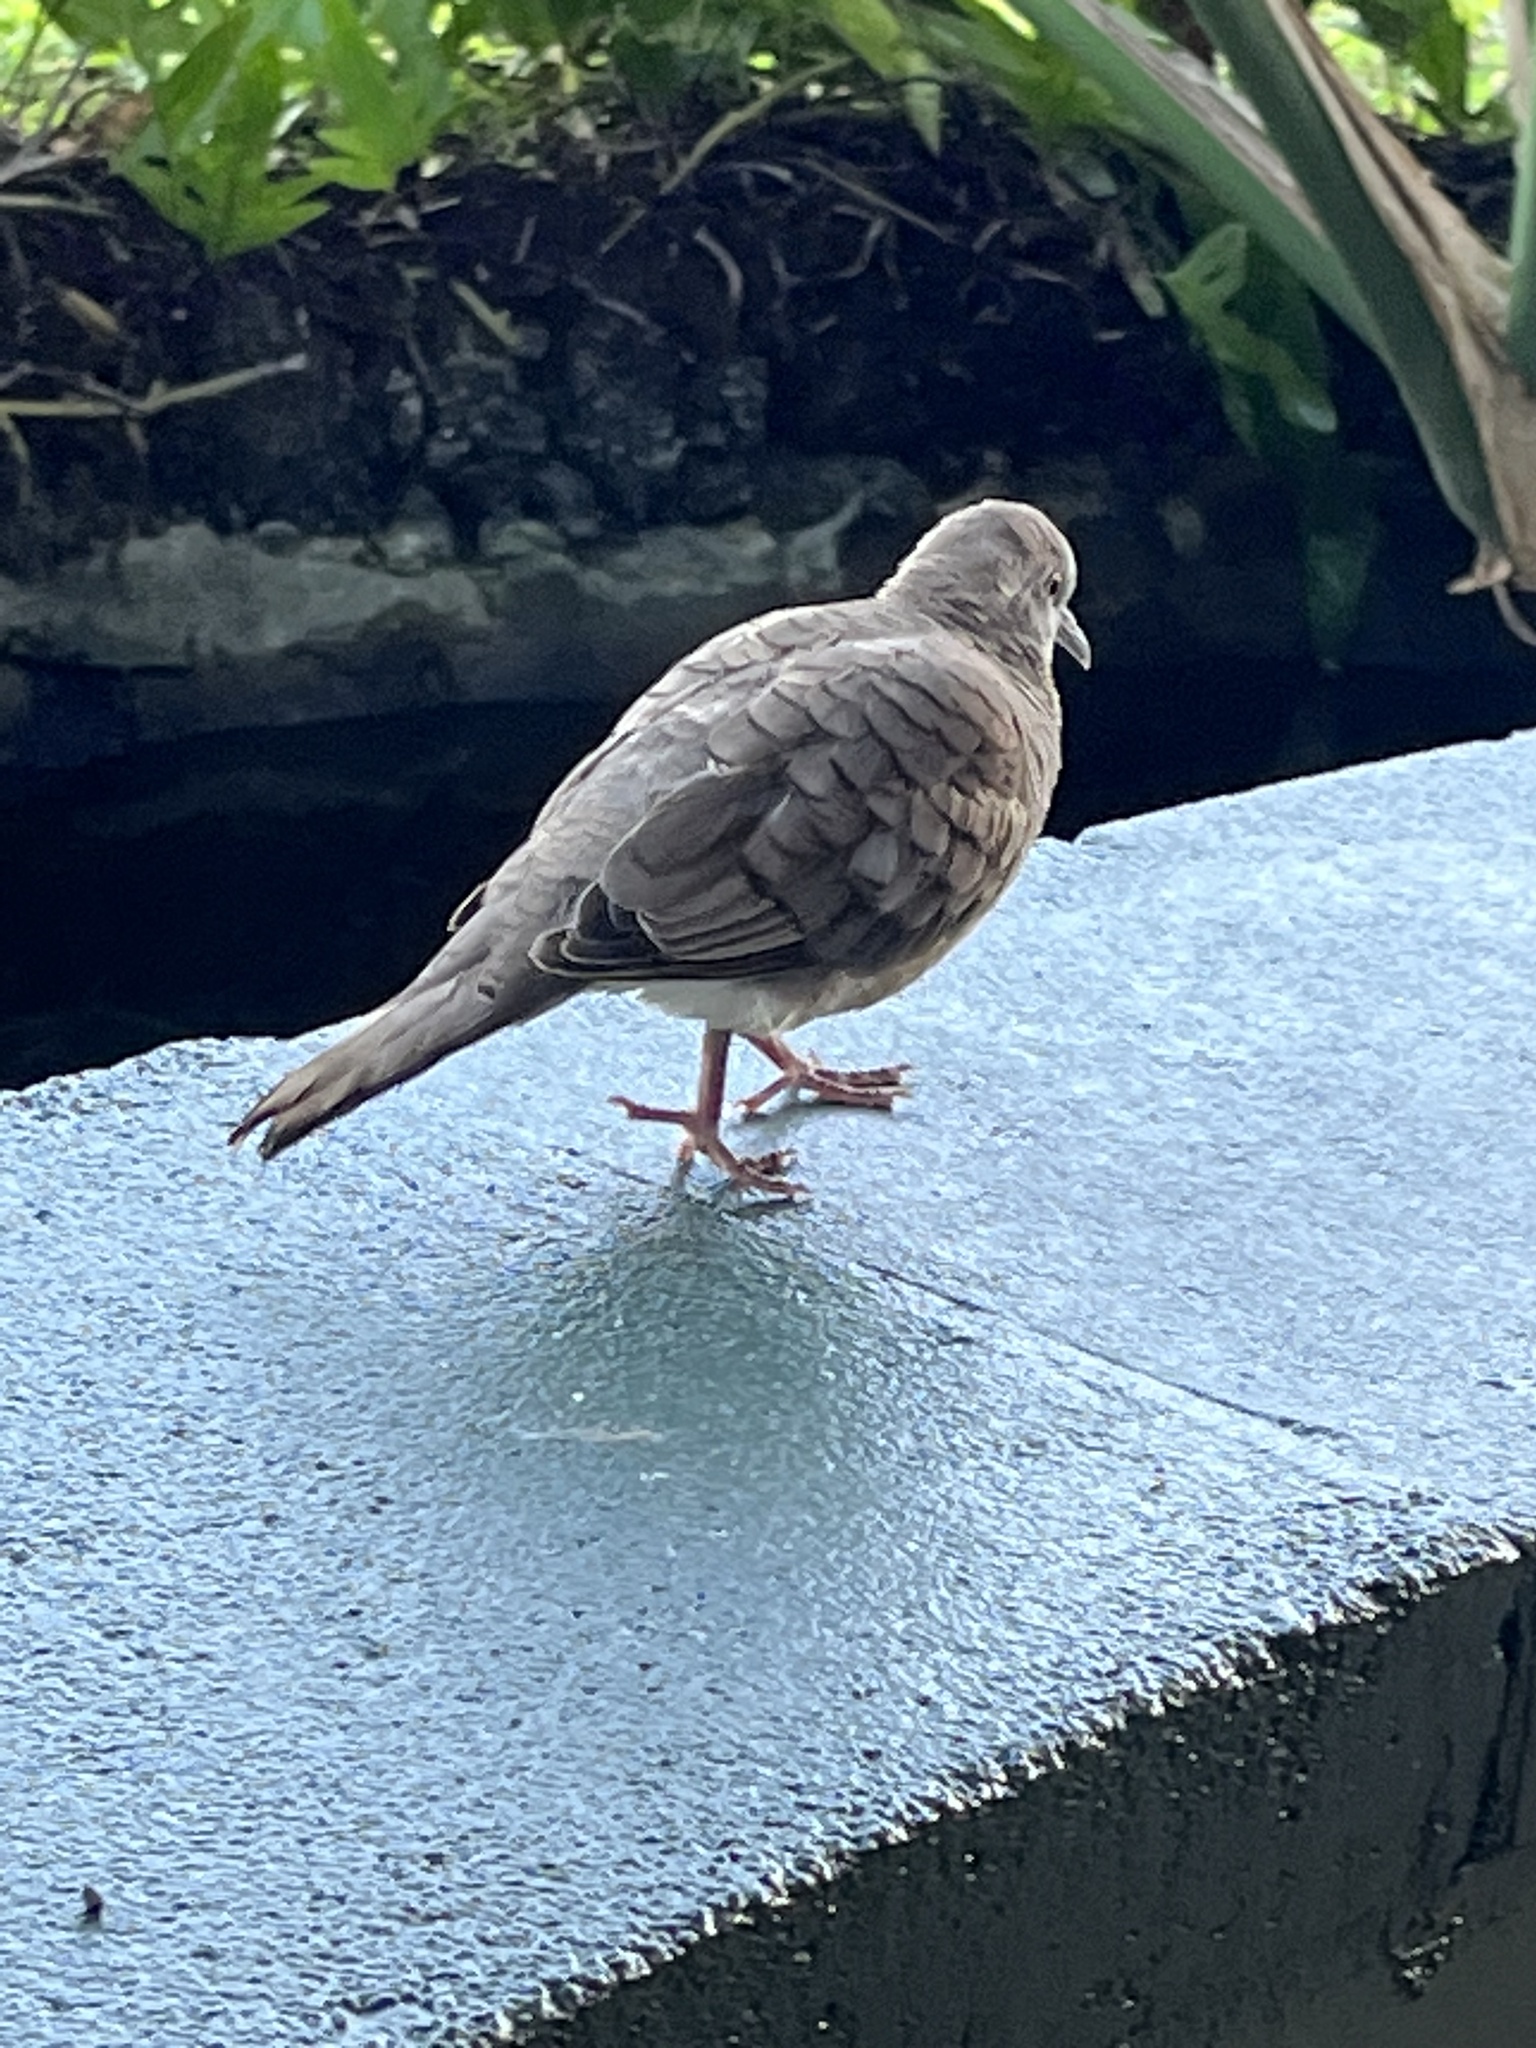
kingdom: Animalia
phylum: Chordata
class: Aves
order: Columbiformes
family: Columbidae
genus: Geopelia
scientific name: Geopelia striata
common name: Zebra dove
